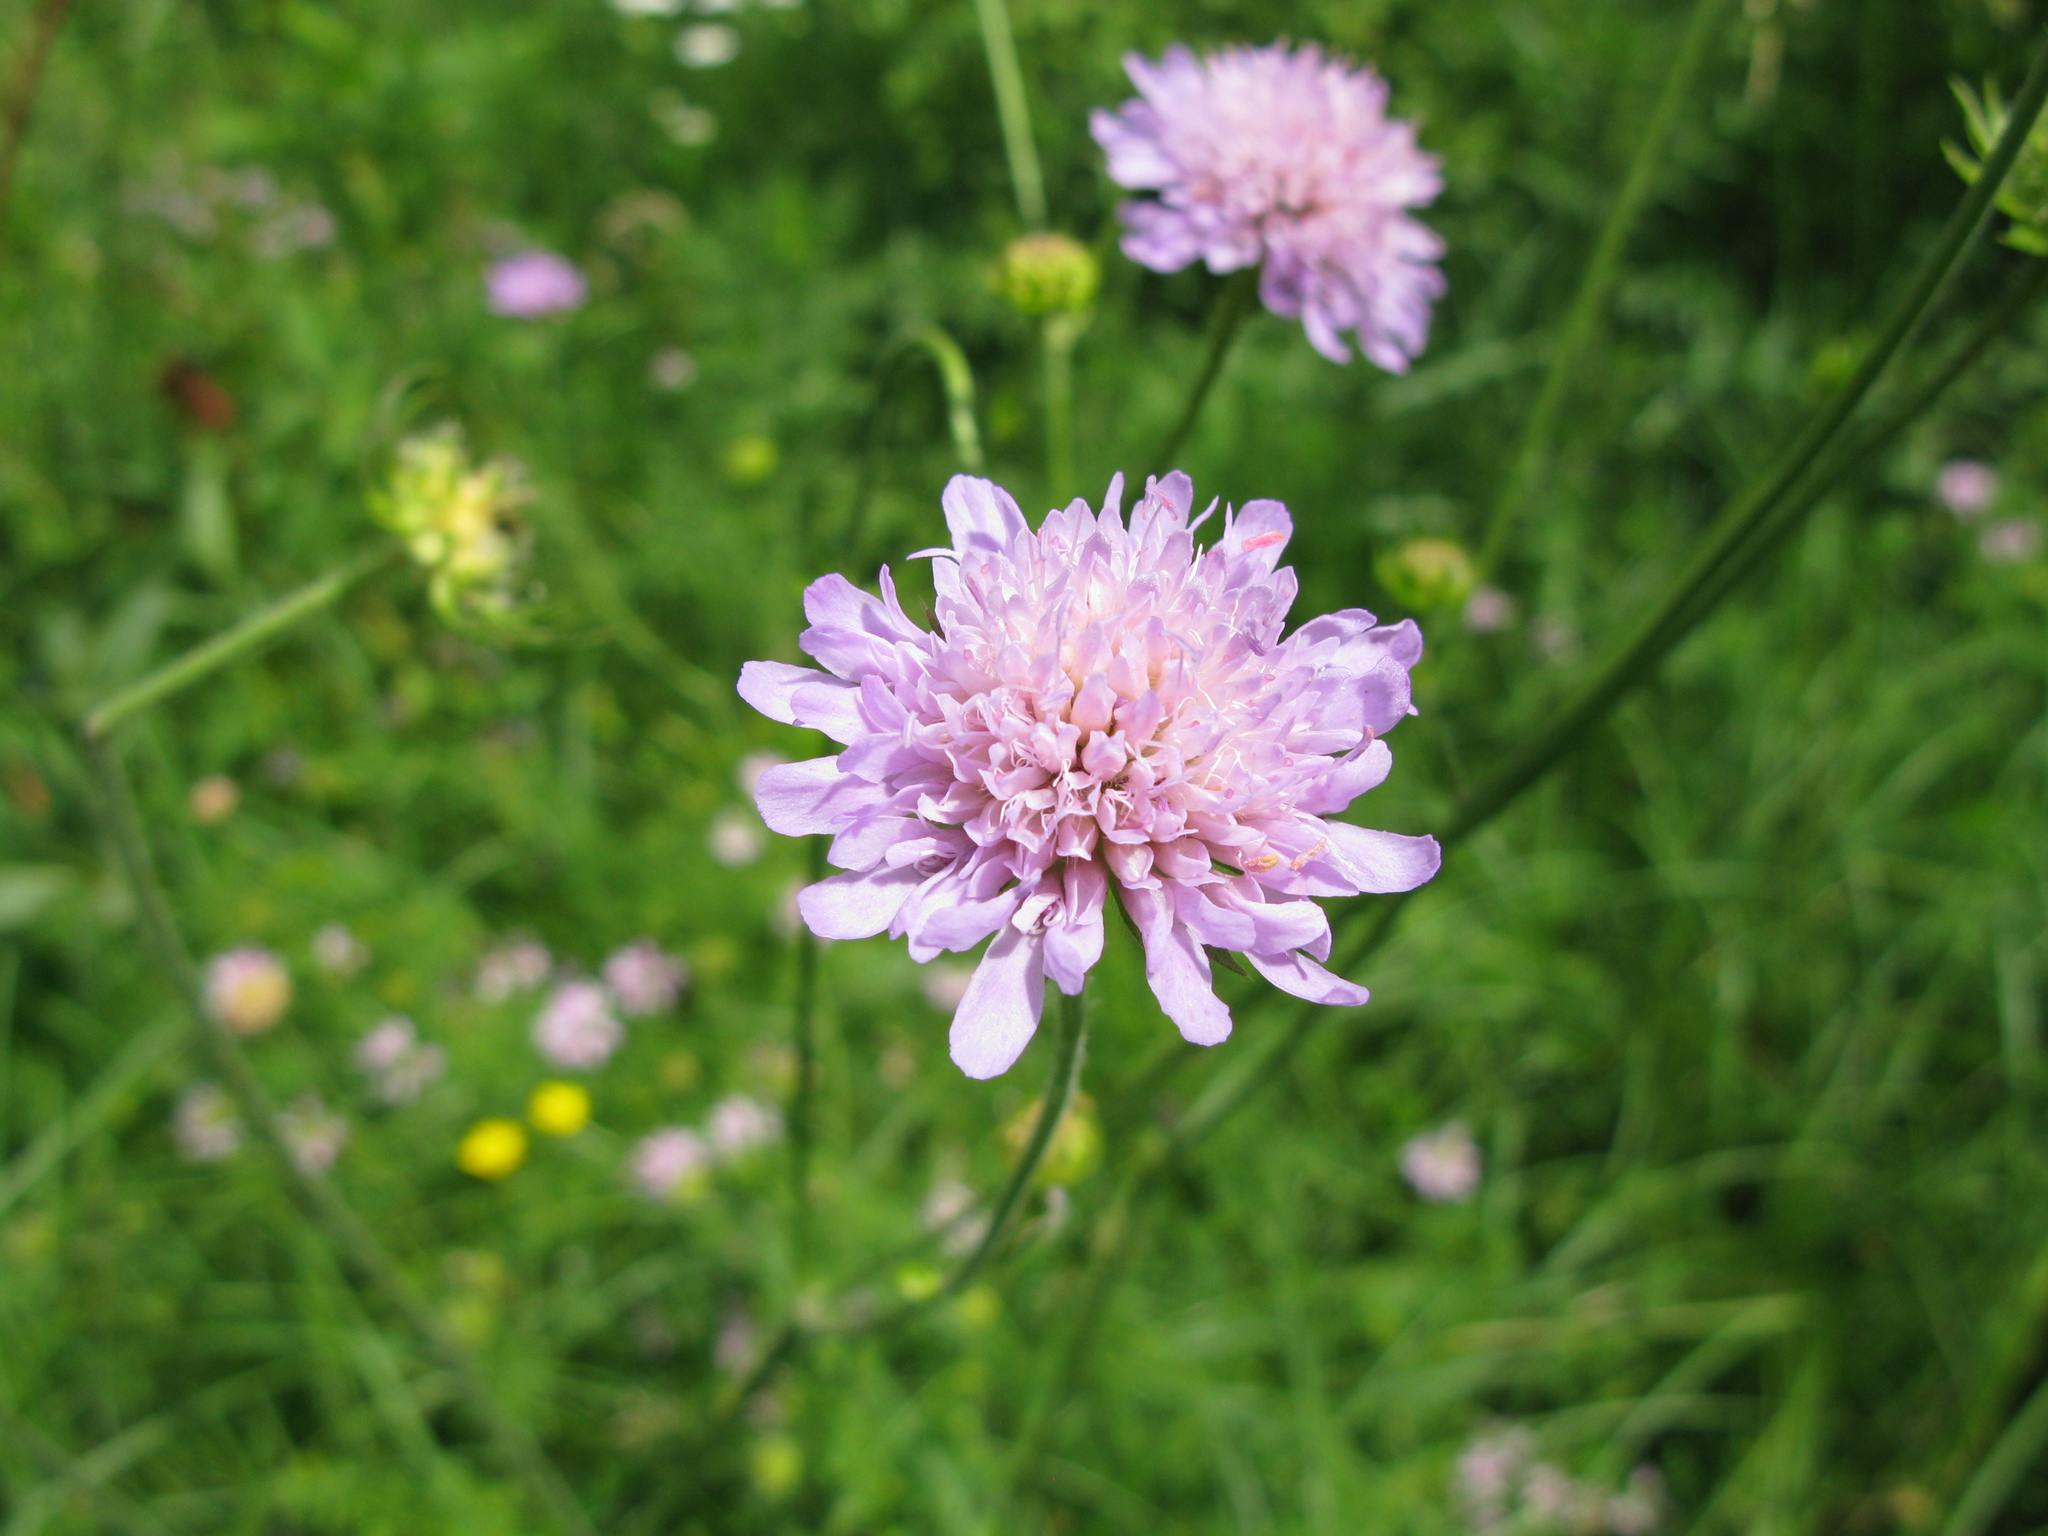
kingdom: Plantae
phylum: Tracheophyta
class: Magnoliopsida
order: Dipsacales
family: Caprifoliaceae
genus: Knautia
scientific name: Knautia arvensis
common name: Field scabiosa
